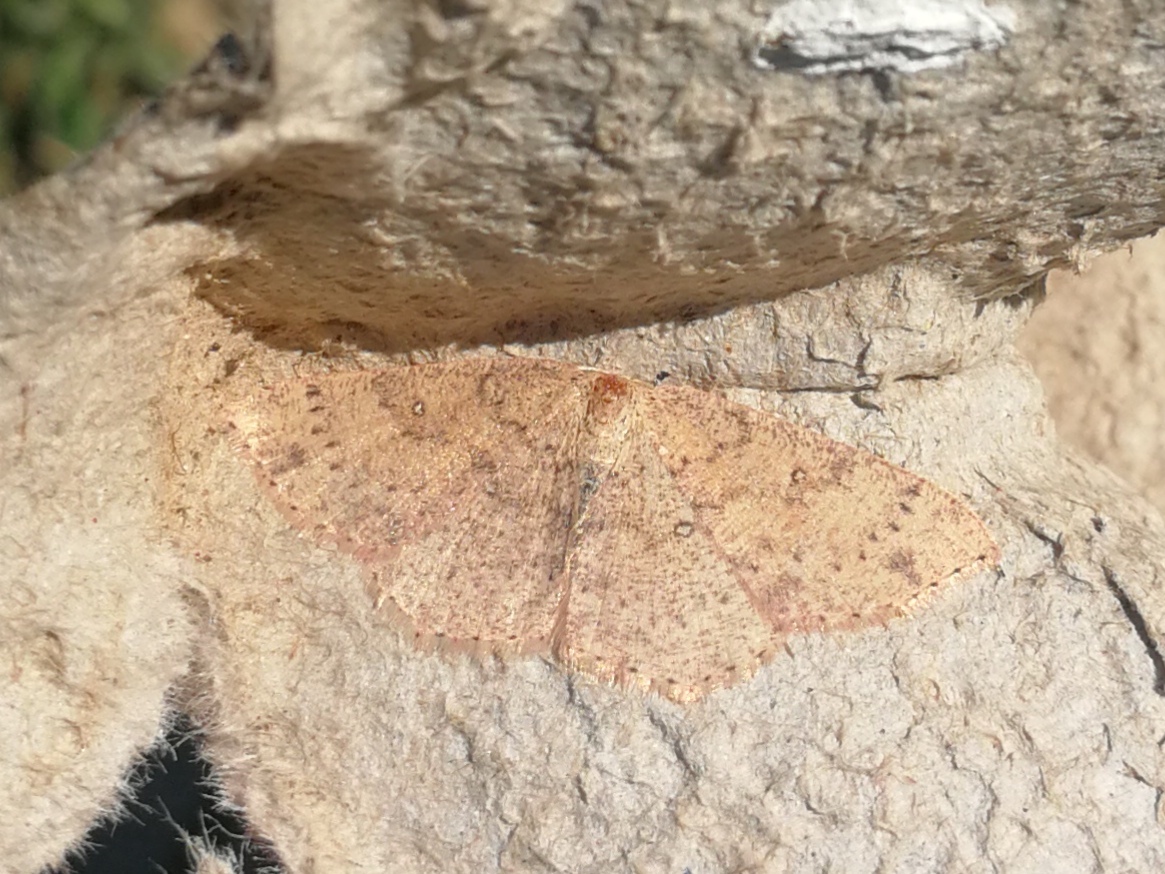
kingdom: Animalia
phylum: Arthropoda
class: Insecta
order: Lepidoptera
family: Geometridae
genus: Cyclophora
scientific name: Cyclophora hyponoea
